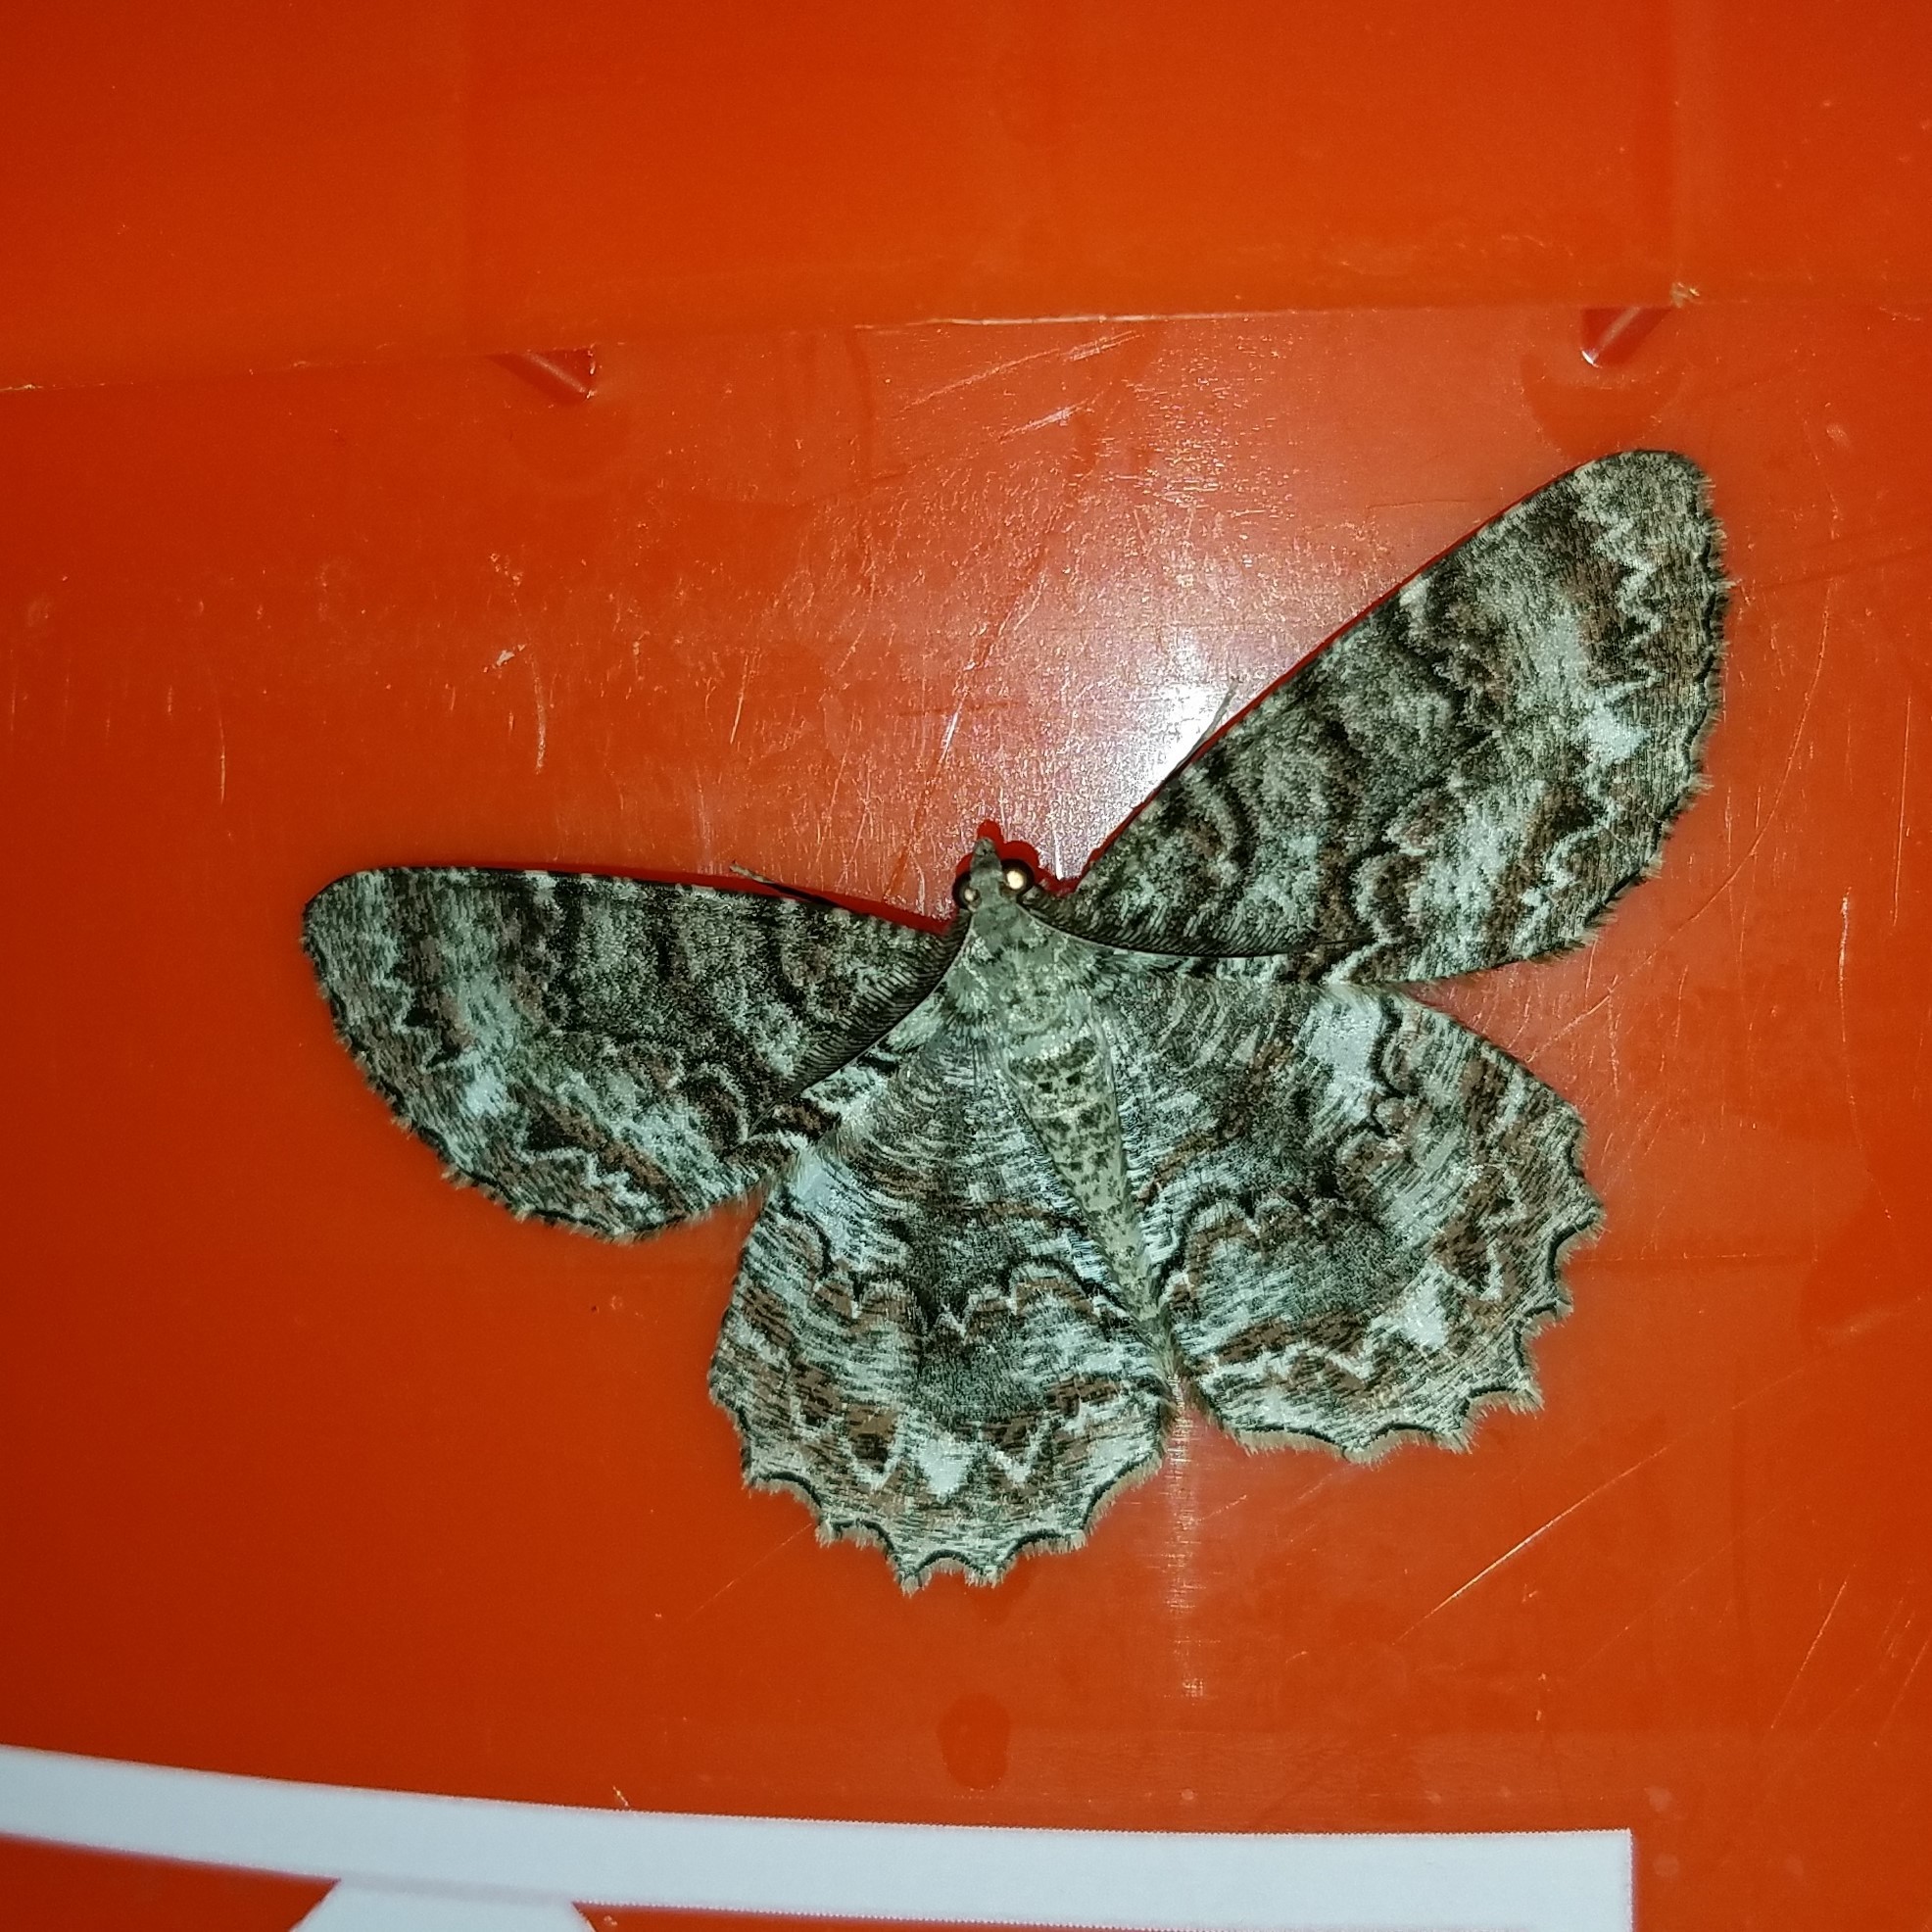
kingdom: Animalia
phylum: Arthropoda
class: Insecta
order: Lepidoptera
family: Geometridae
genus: Epimecis
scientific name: Epimecis hortaria
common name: Tulip-tree beauty
